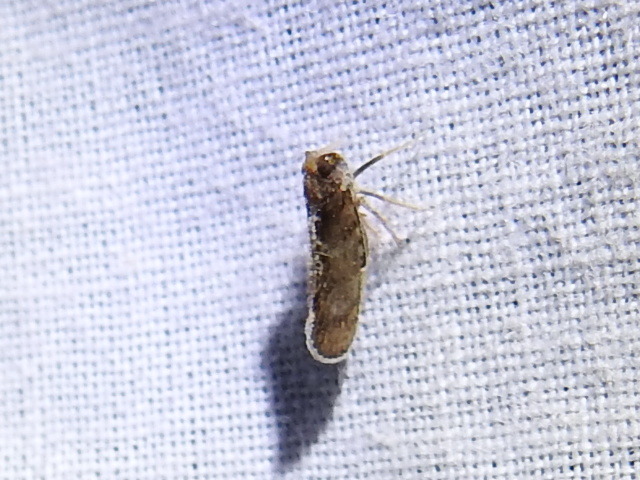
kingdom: Animalia
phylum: Arthropoda
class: Insecta
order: Hemiptera
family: Cixiidae
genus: Pintalia
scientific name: Pintalia vibex
